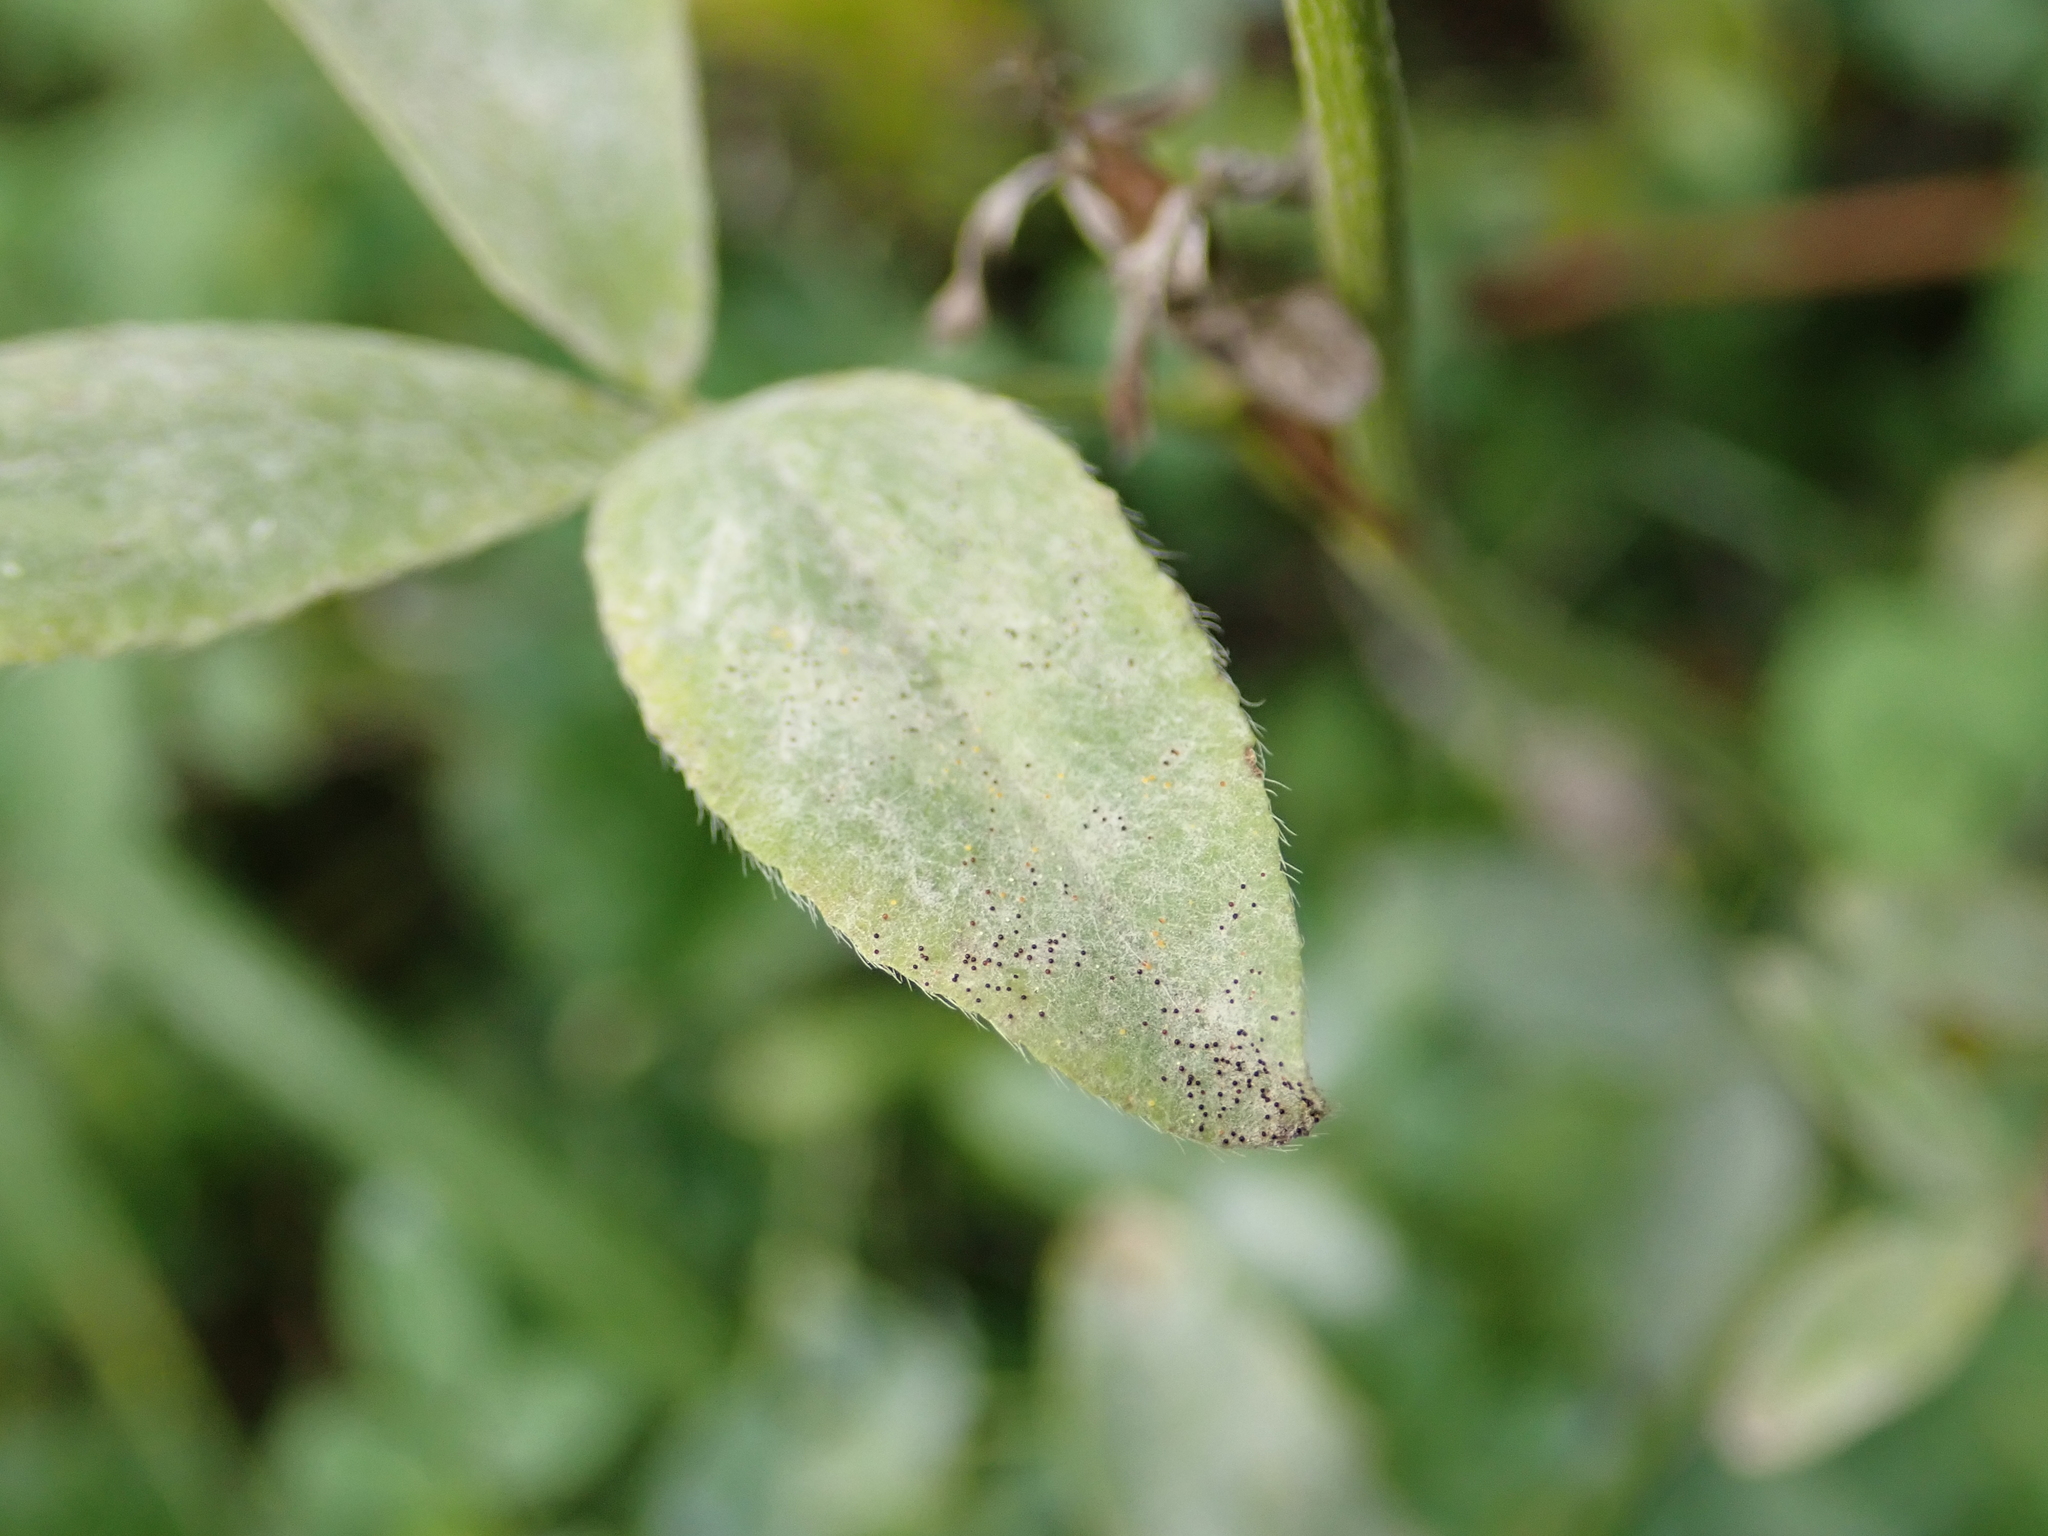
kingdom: Fungi
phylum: Ascomycota
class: Leotiomycetes
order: Helotiales
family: Erysiphaceae
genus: Erysiphe
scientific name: Erysiphe trifoliorum
